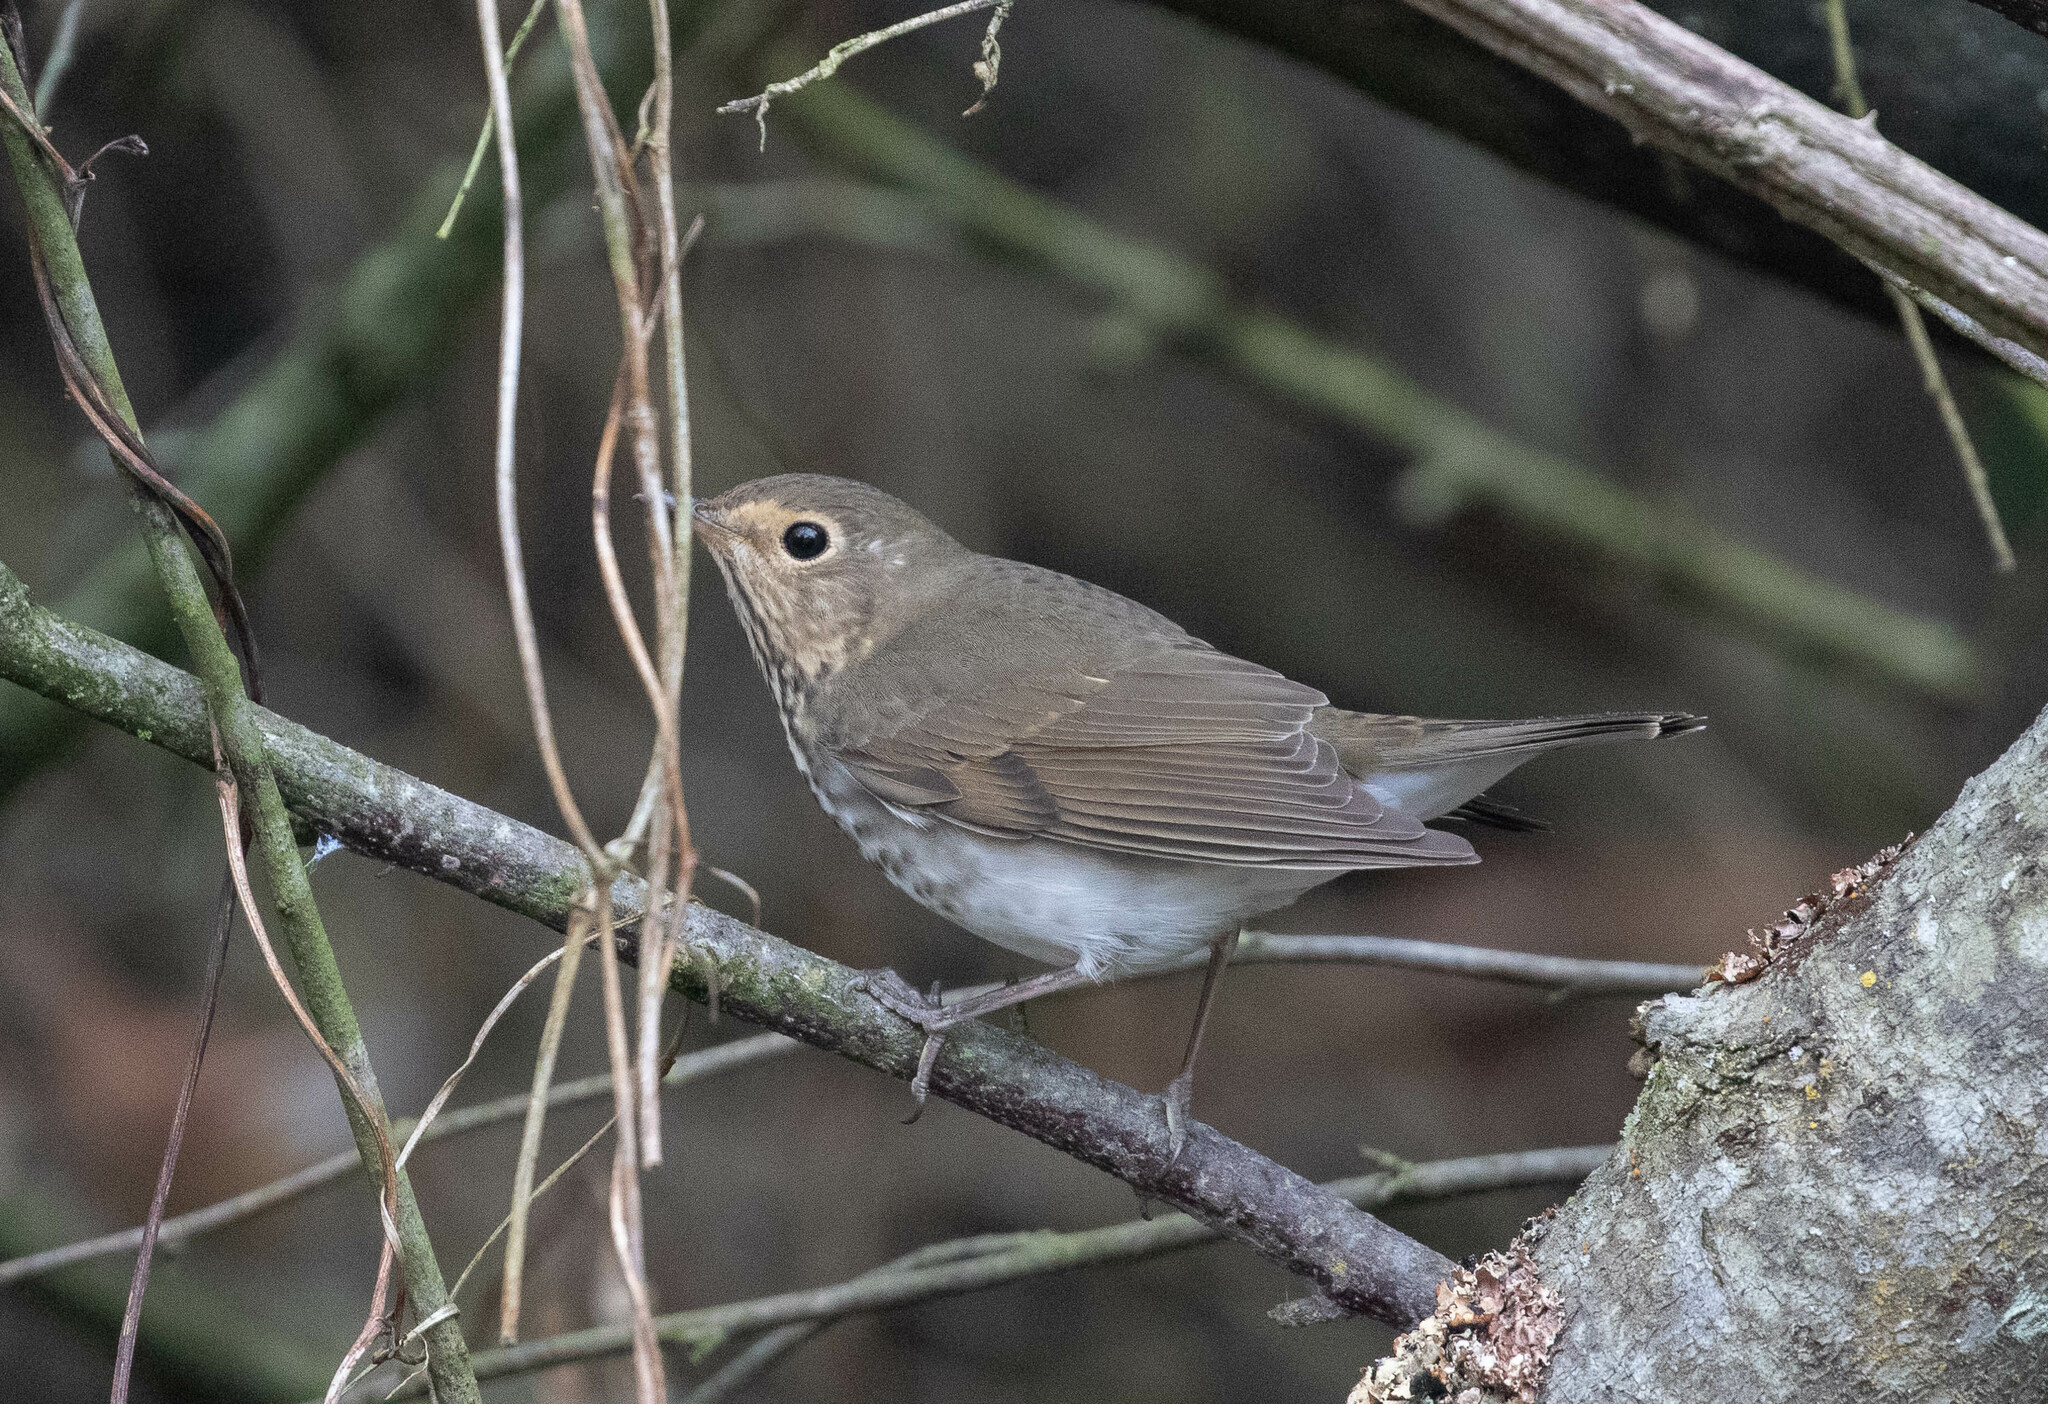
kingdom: Animalia
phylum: Chordata
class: Aves
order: Passeriformes
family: Turdidae
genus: Catharus
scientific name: Catharus ustulatus
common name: Swainson's thrush
